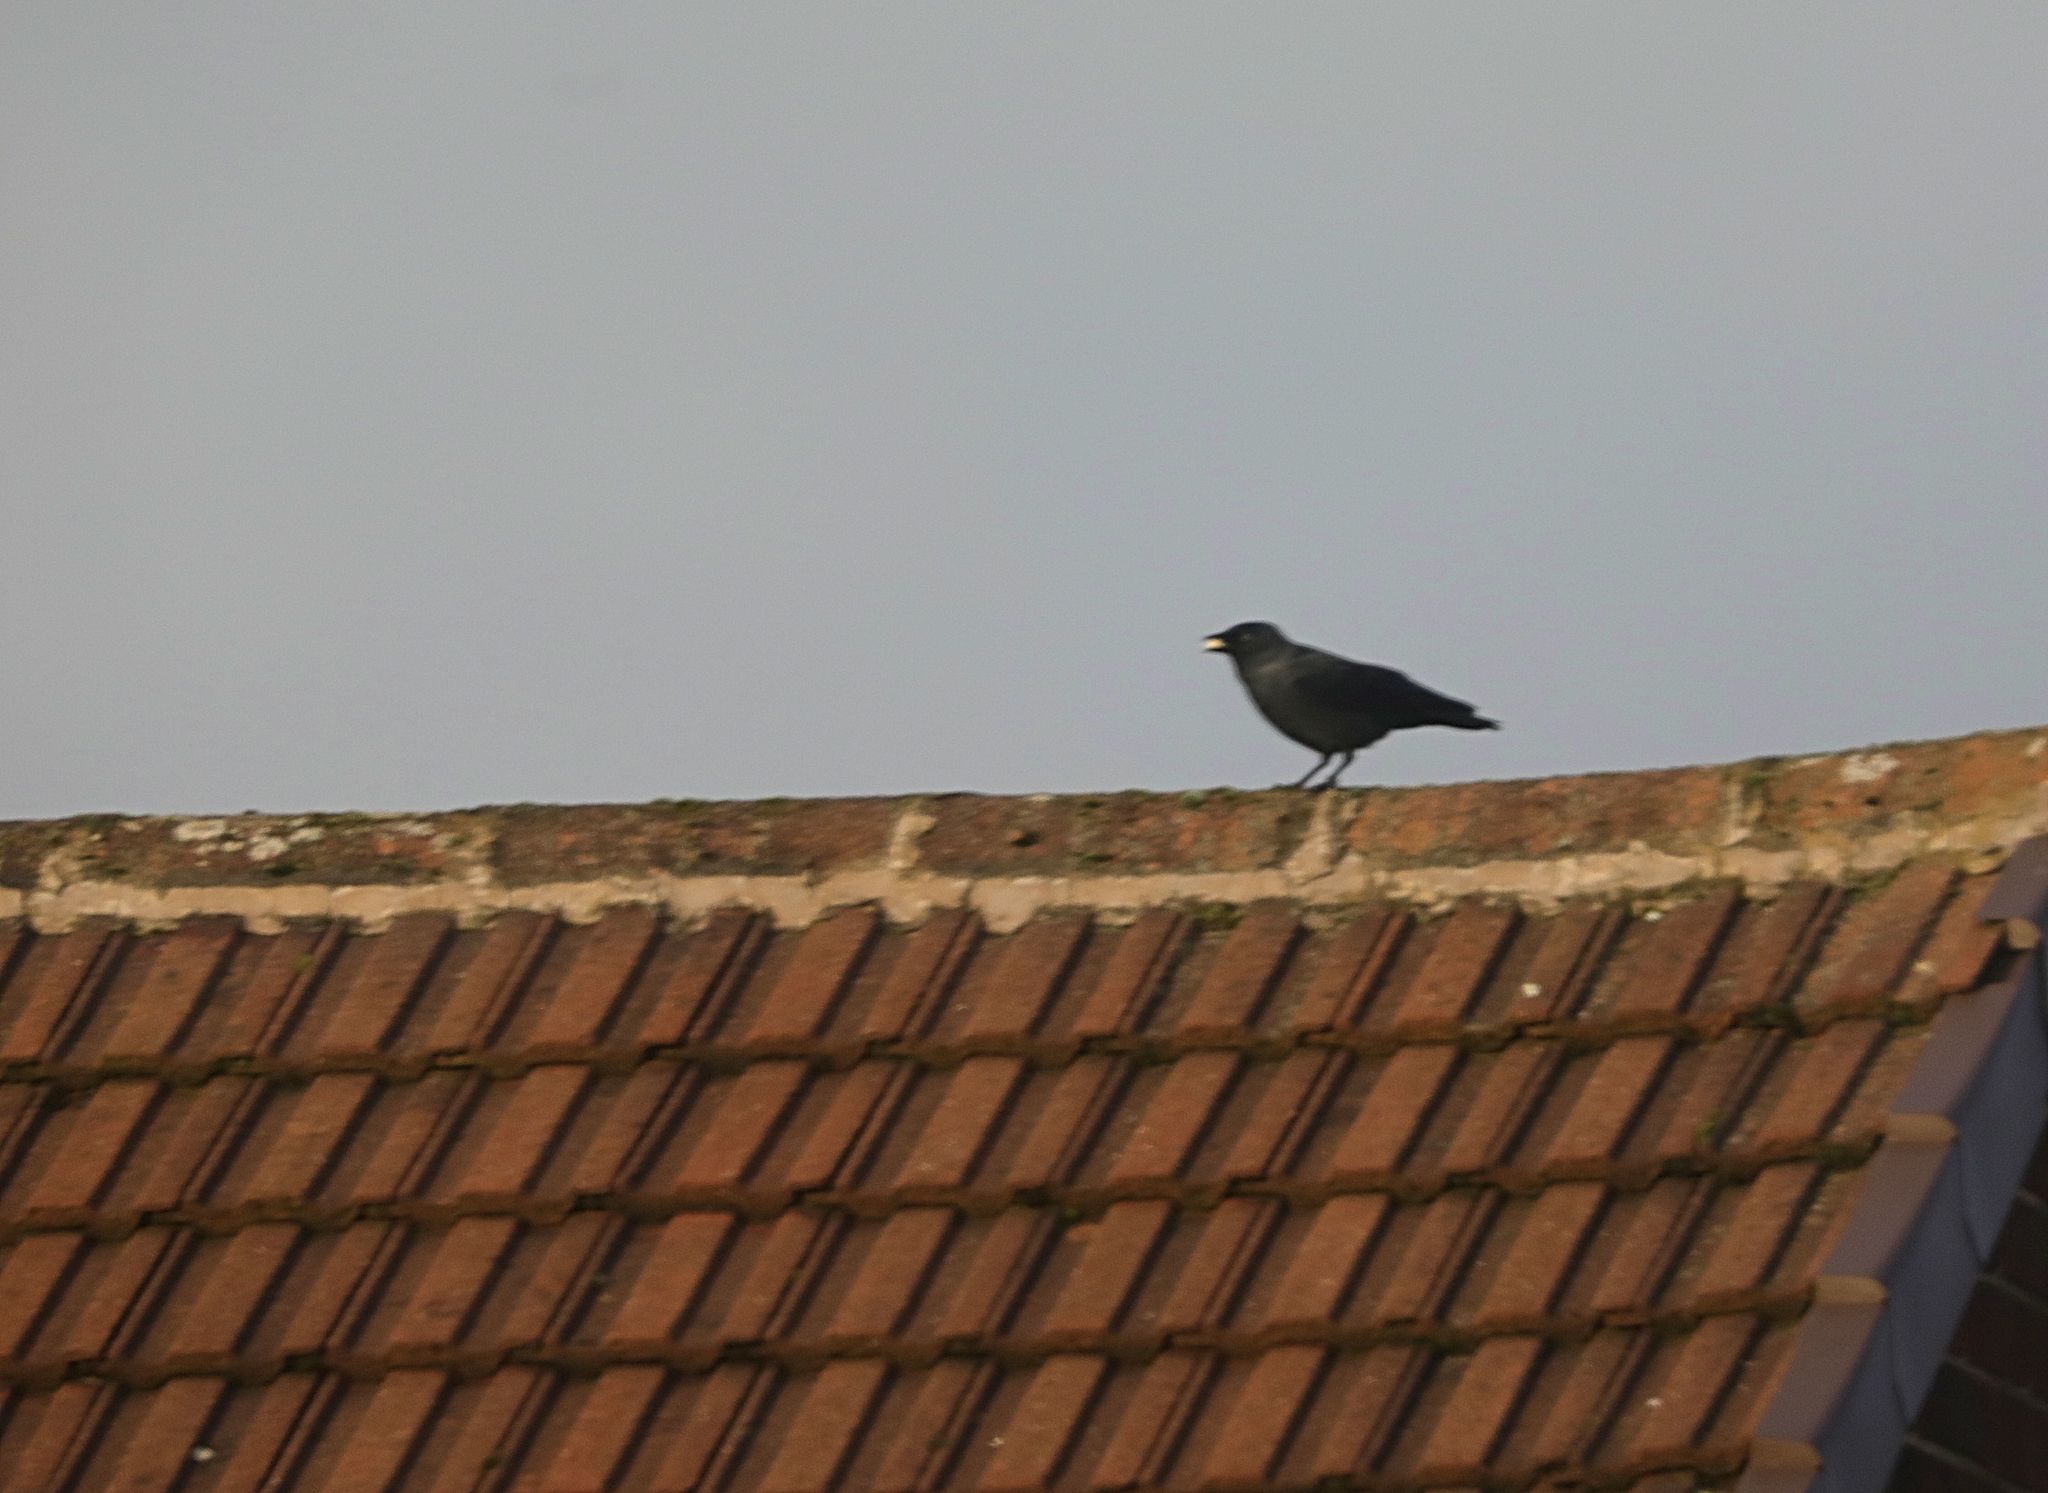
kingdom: Animalia
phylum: Chordata
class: Aves
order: Passeriformes
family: Corvidae
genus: Coloeus
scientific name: Coloeus monedula
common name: Western jackdaw
